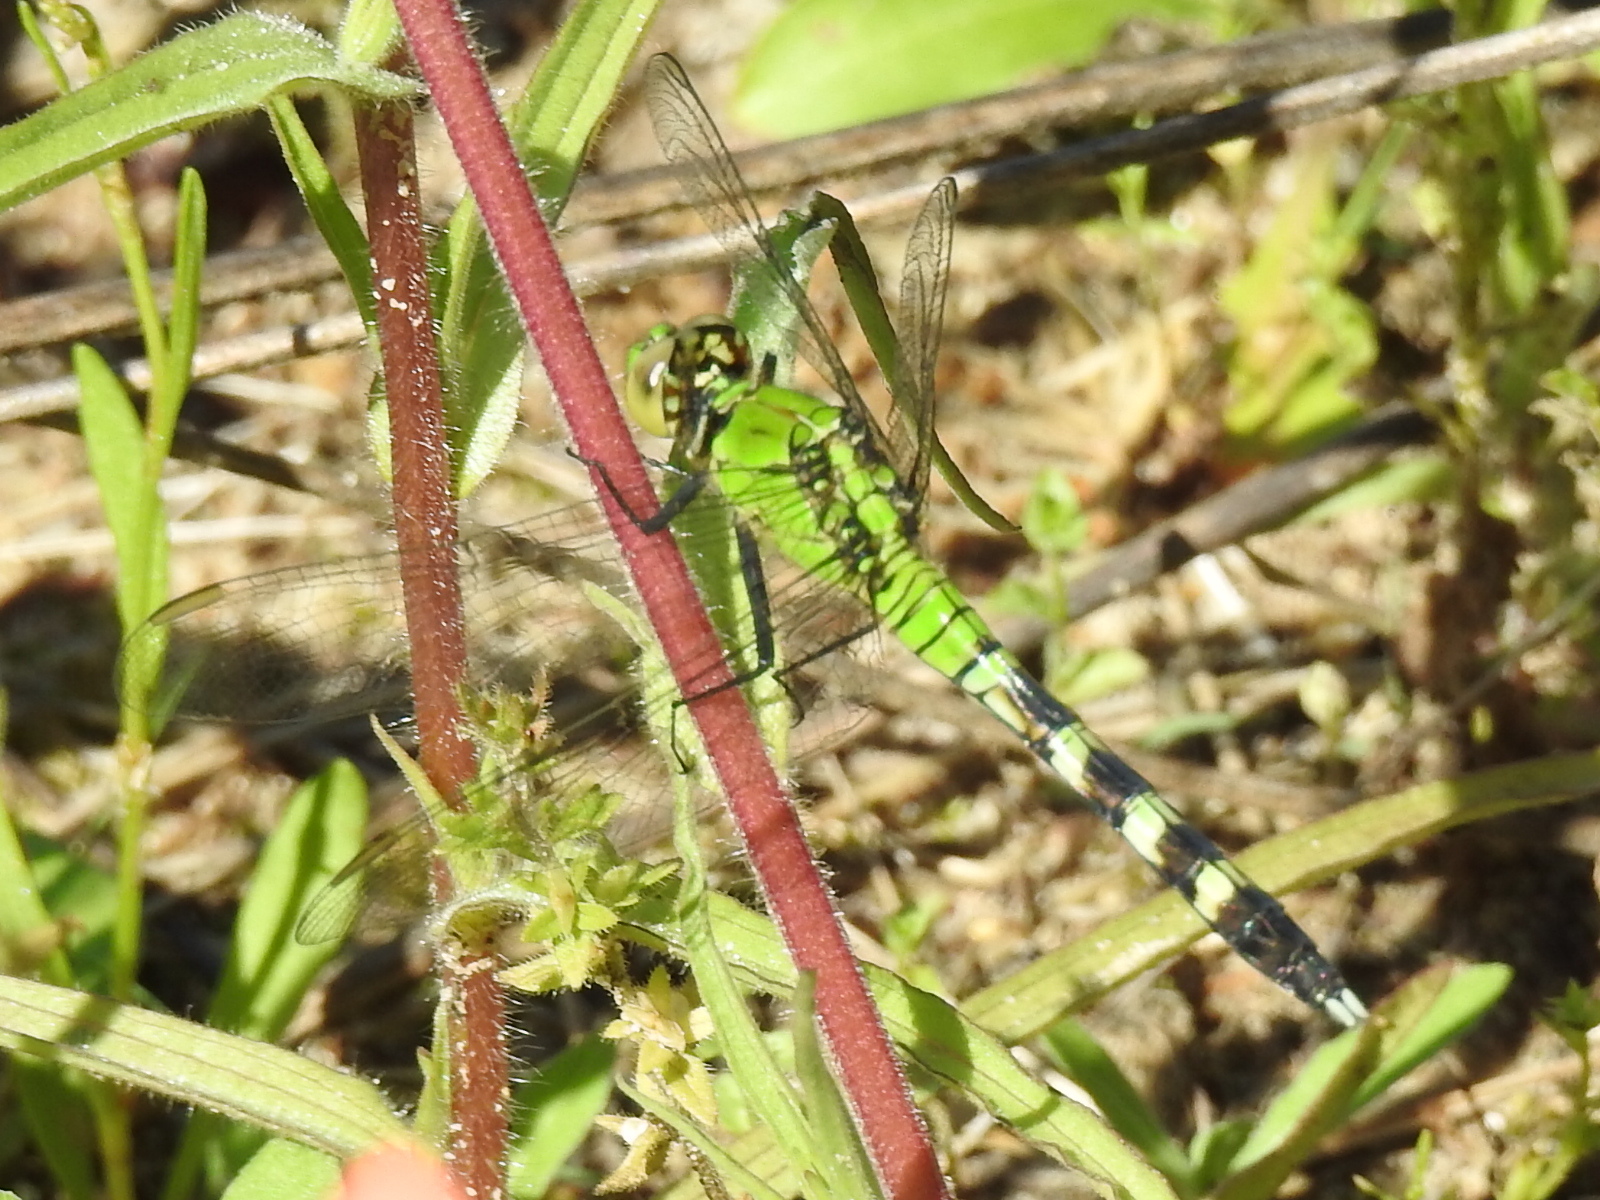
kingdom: Animalia
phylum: Arthropoda
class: Insecta
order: Odonata
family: Libellulidae
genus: Erythemis
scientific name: Erythemis simplicicollis
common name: Eastern pondhawk
